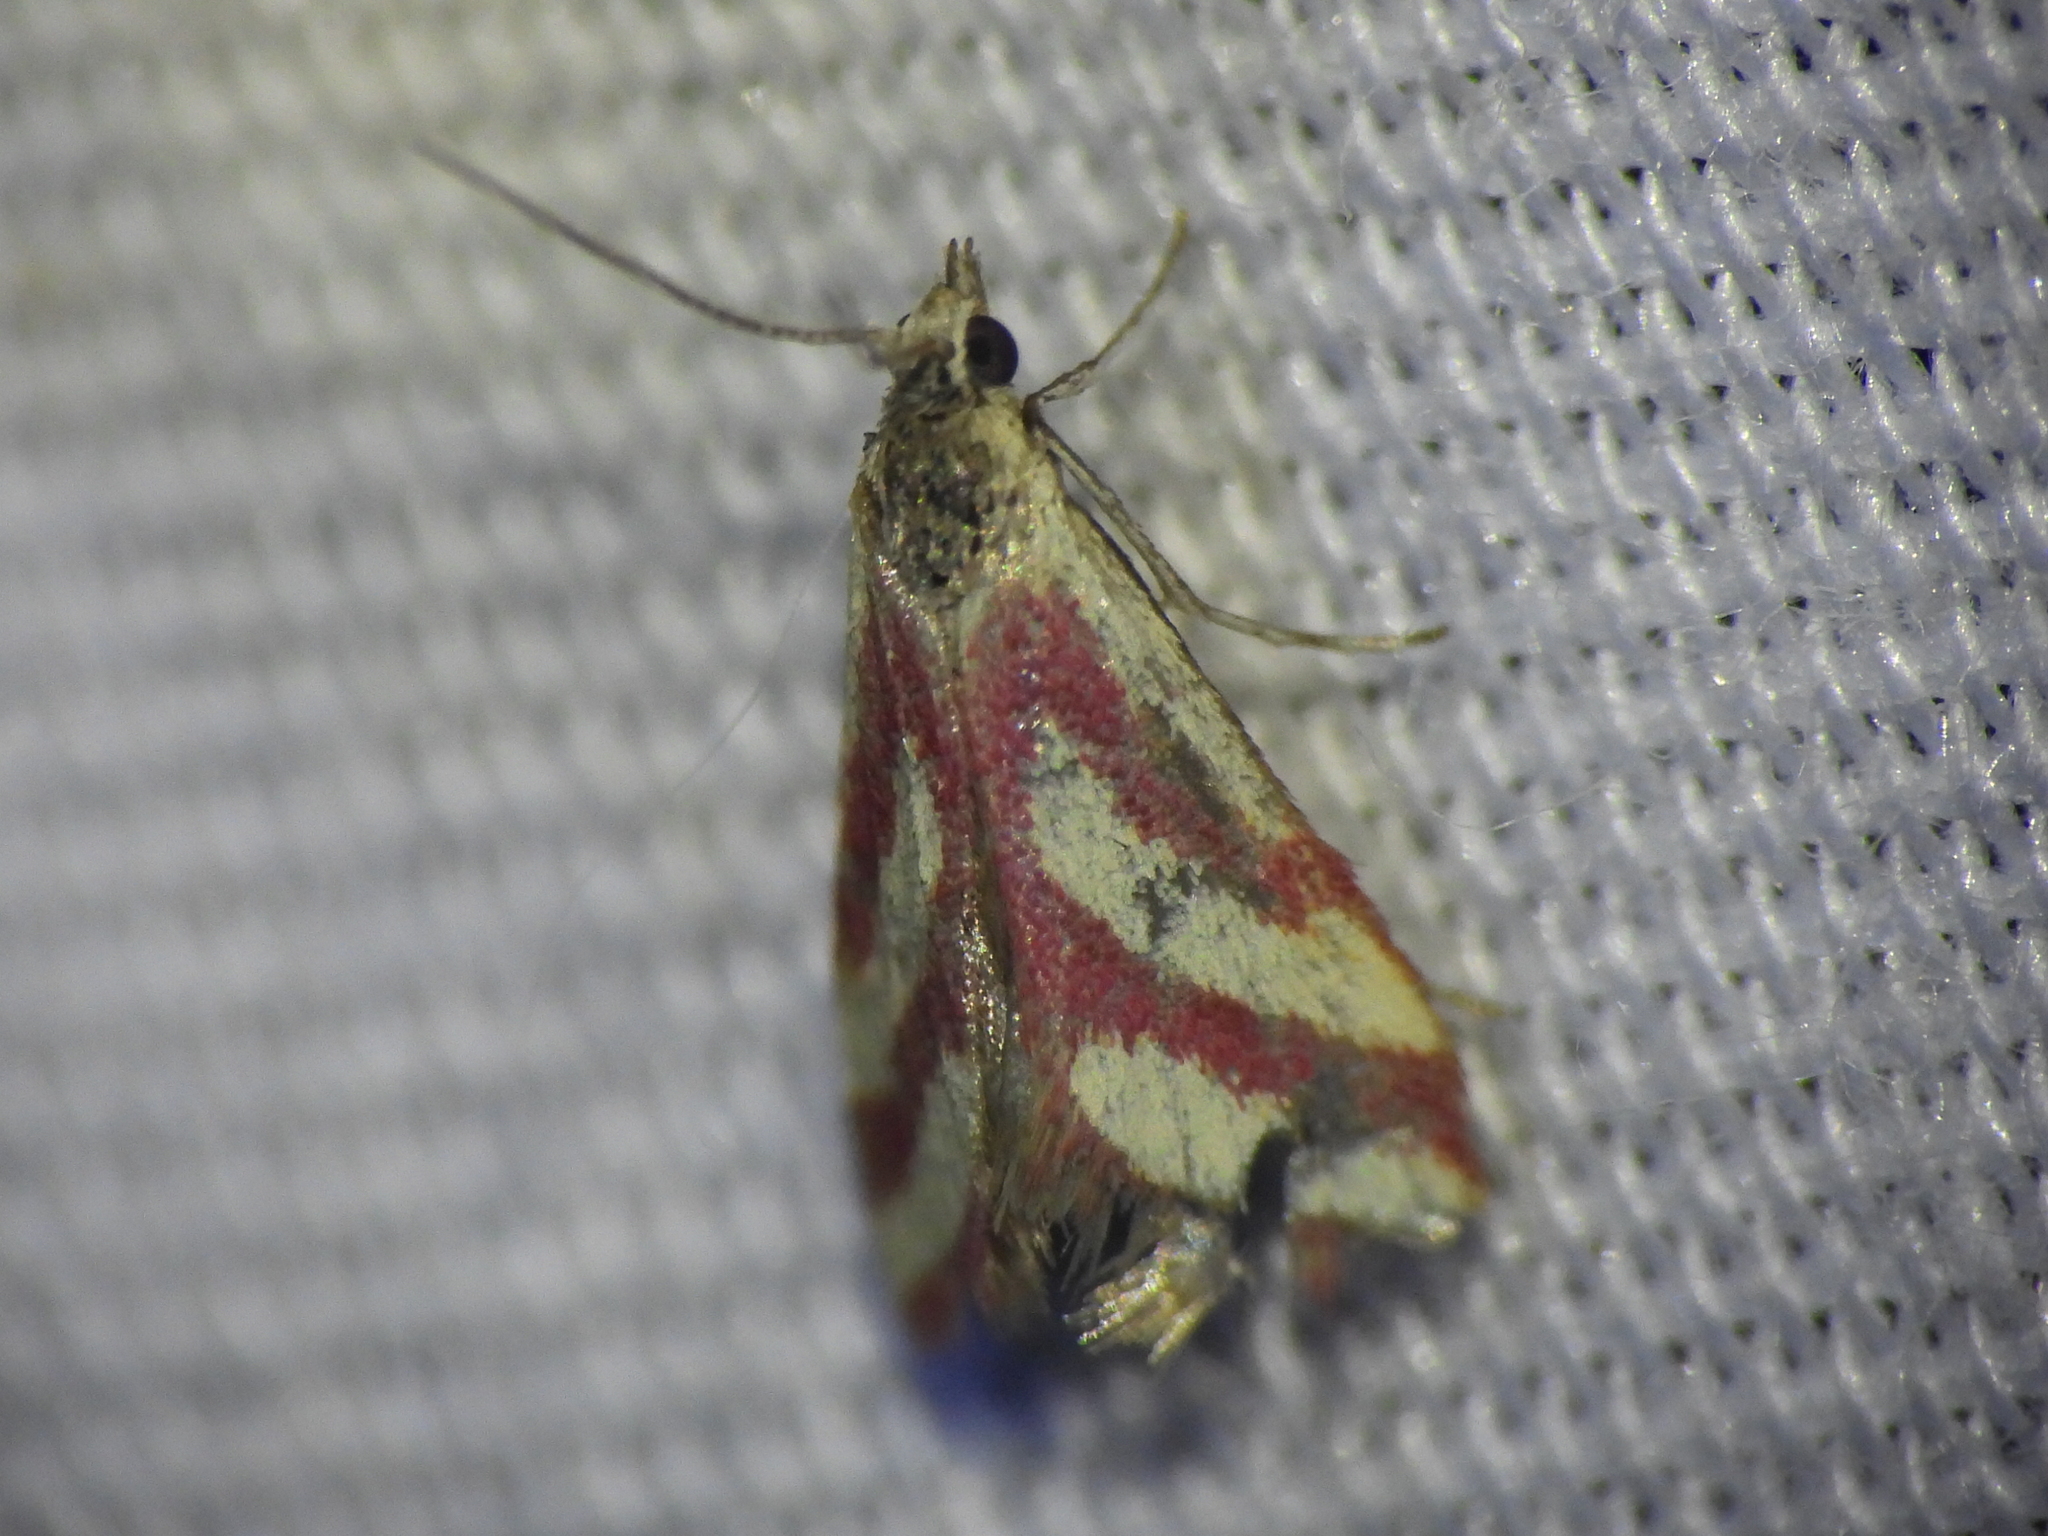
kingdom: Animalia
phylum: Arthropoda
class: Insecta
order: Lepidoptera
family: Crambidae
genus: Microtheoris
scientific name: Microtheoris vibicalis
